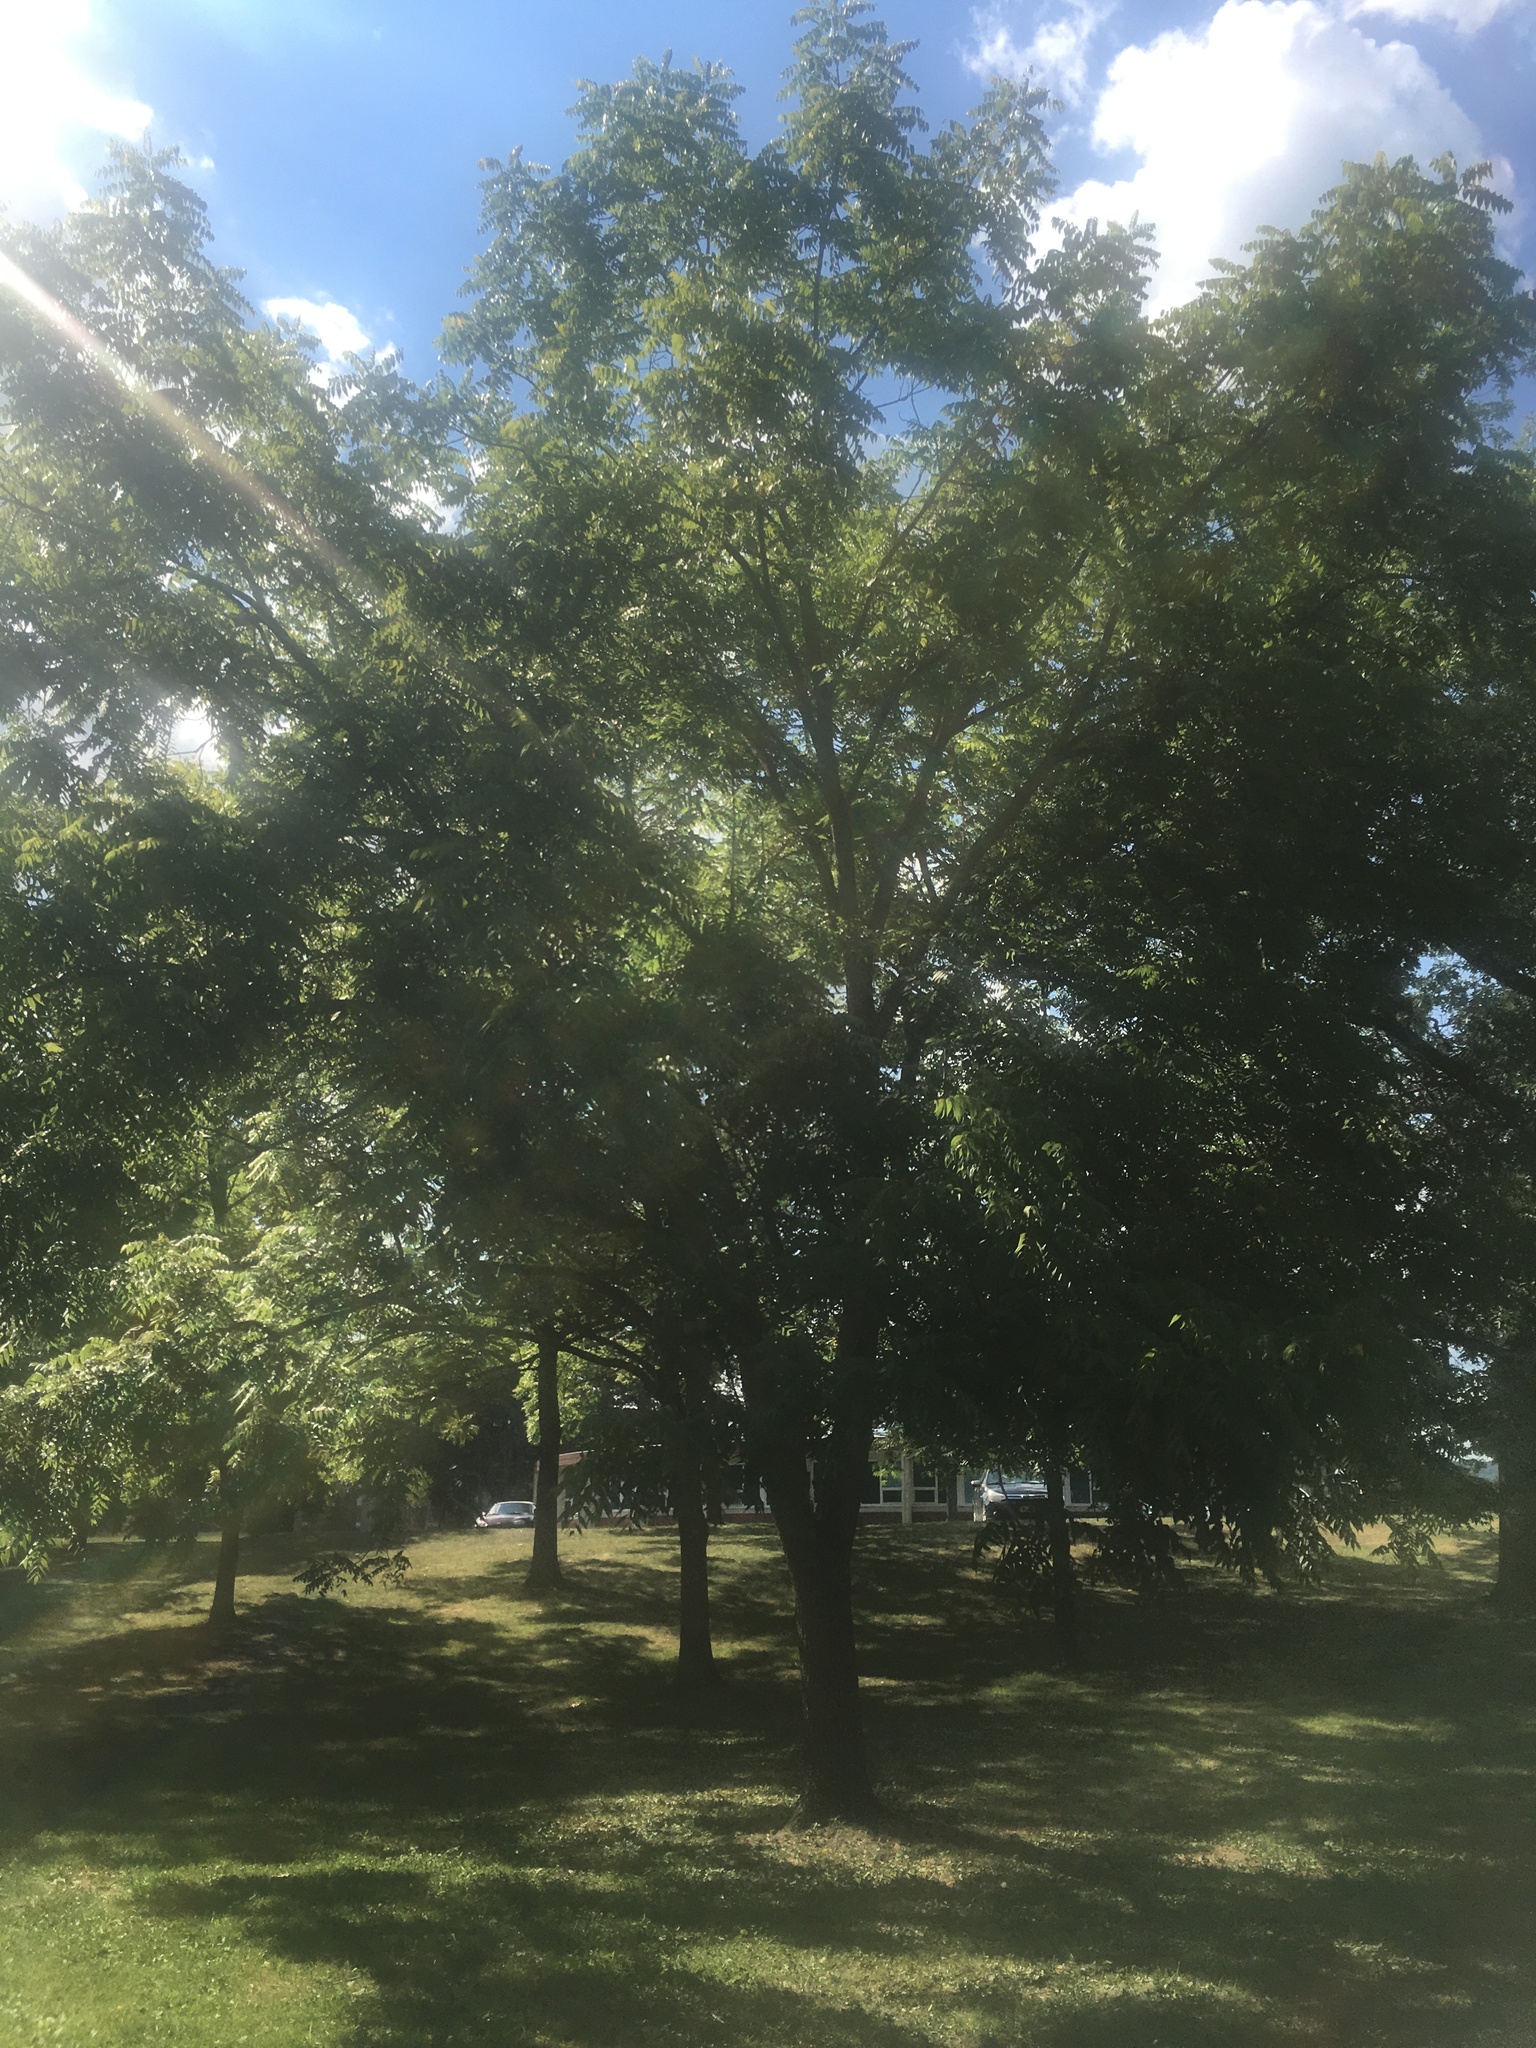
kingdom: Plantae
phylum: Tracheophyta
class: Magnoliopsida
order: Fagales
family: Juglandaceae
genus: Juglans
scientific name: Juglans nigra
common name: Black walnut
